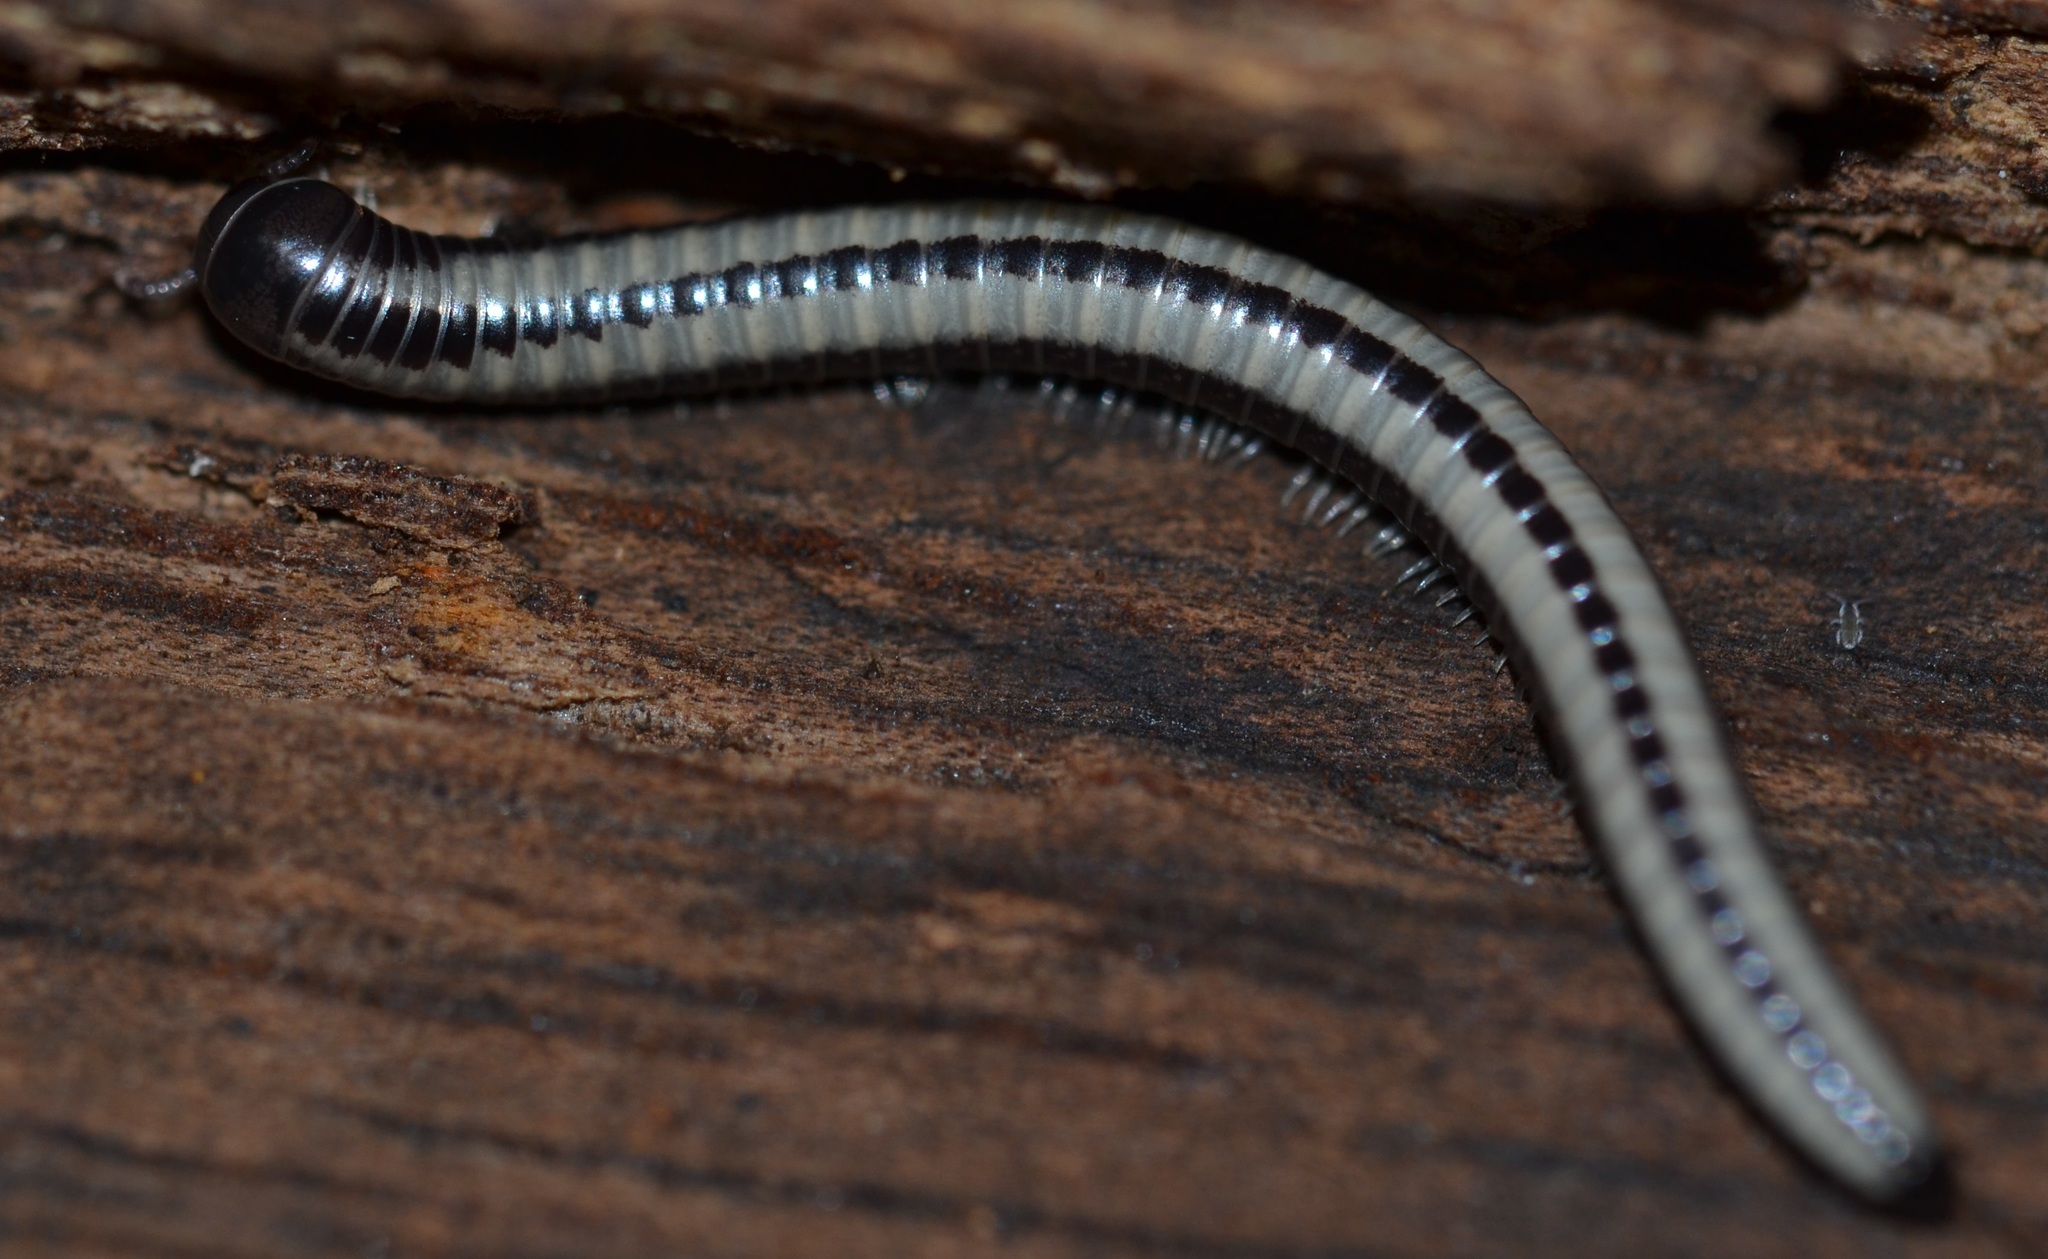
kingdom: Animalia
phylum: Arthropoda
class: Diplopoda
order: Spirobolida
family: Spirobolellidae
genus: Spirobolellus
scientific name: Spirobolellus immigrans
